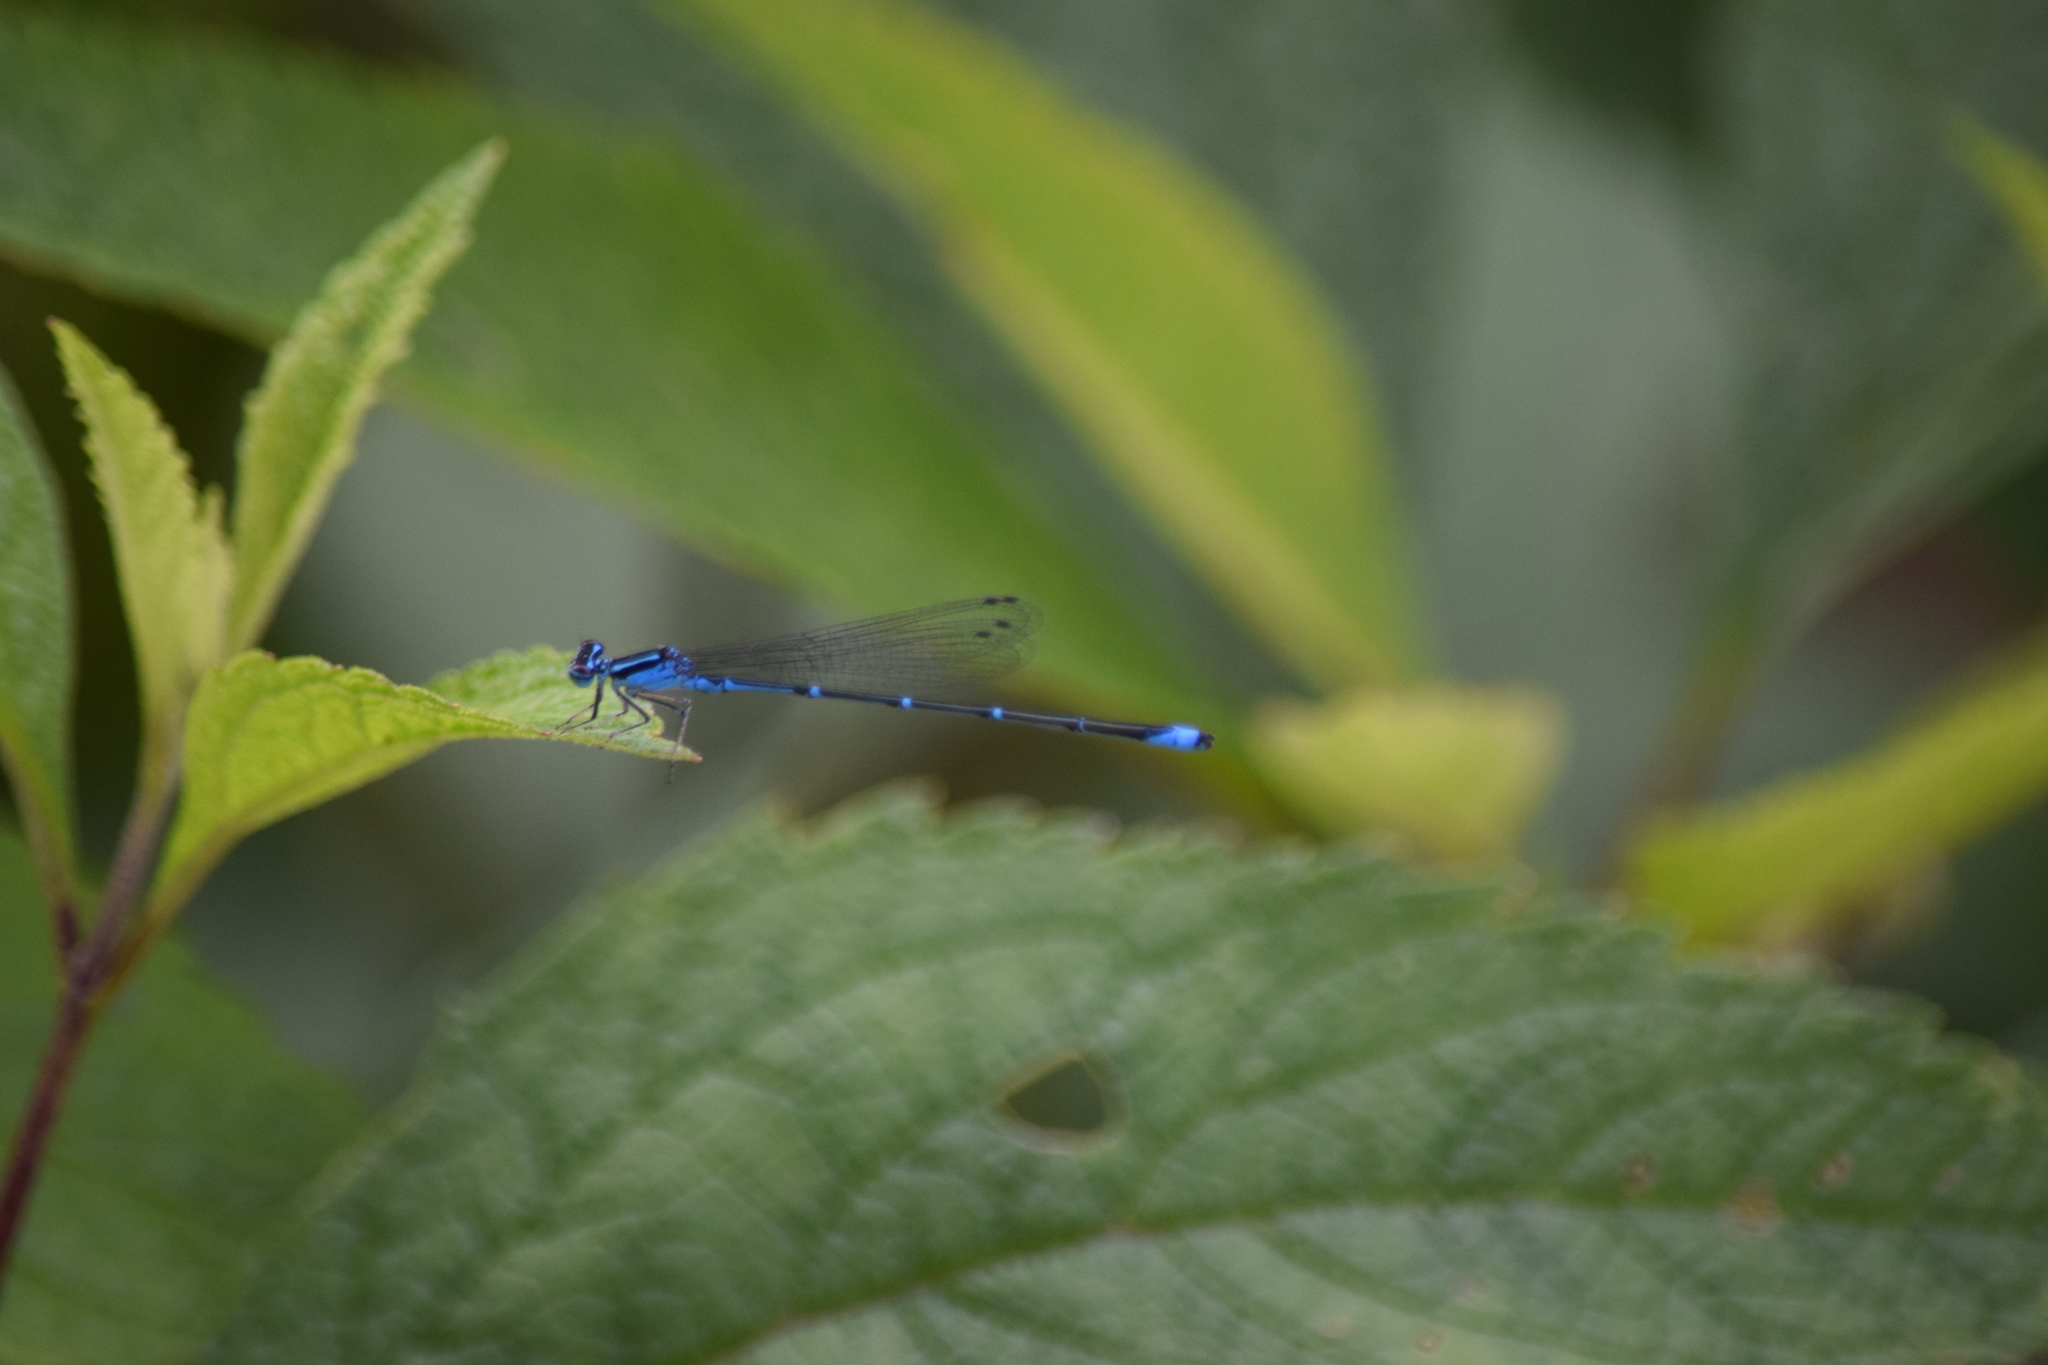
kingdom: Animalia
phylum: Arthropoda
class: Insecta
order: Odonata
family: Coenagrionidae
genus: Enallagma
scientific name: Enallagma exsulans
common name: Stream bluet
